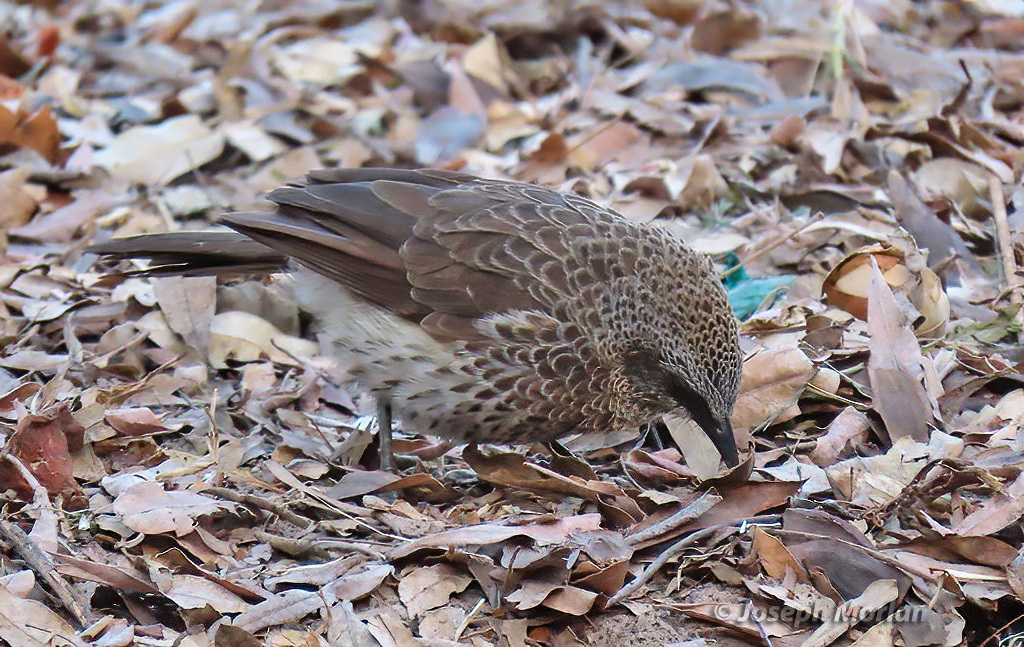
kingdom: Animalia
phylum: Chordata
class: Aves
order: Passeriformes
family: Leiothrichidae
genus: Turdoides
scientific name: Turdoides hartlaubii
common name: Hartlaub's babbler
